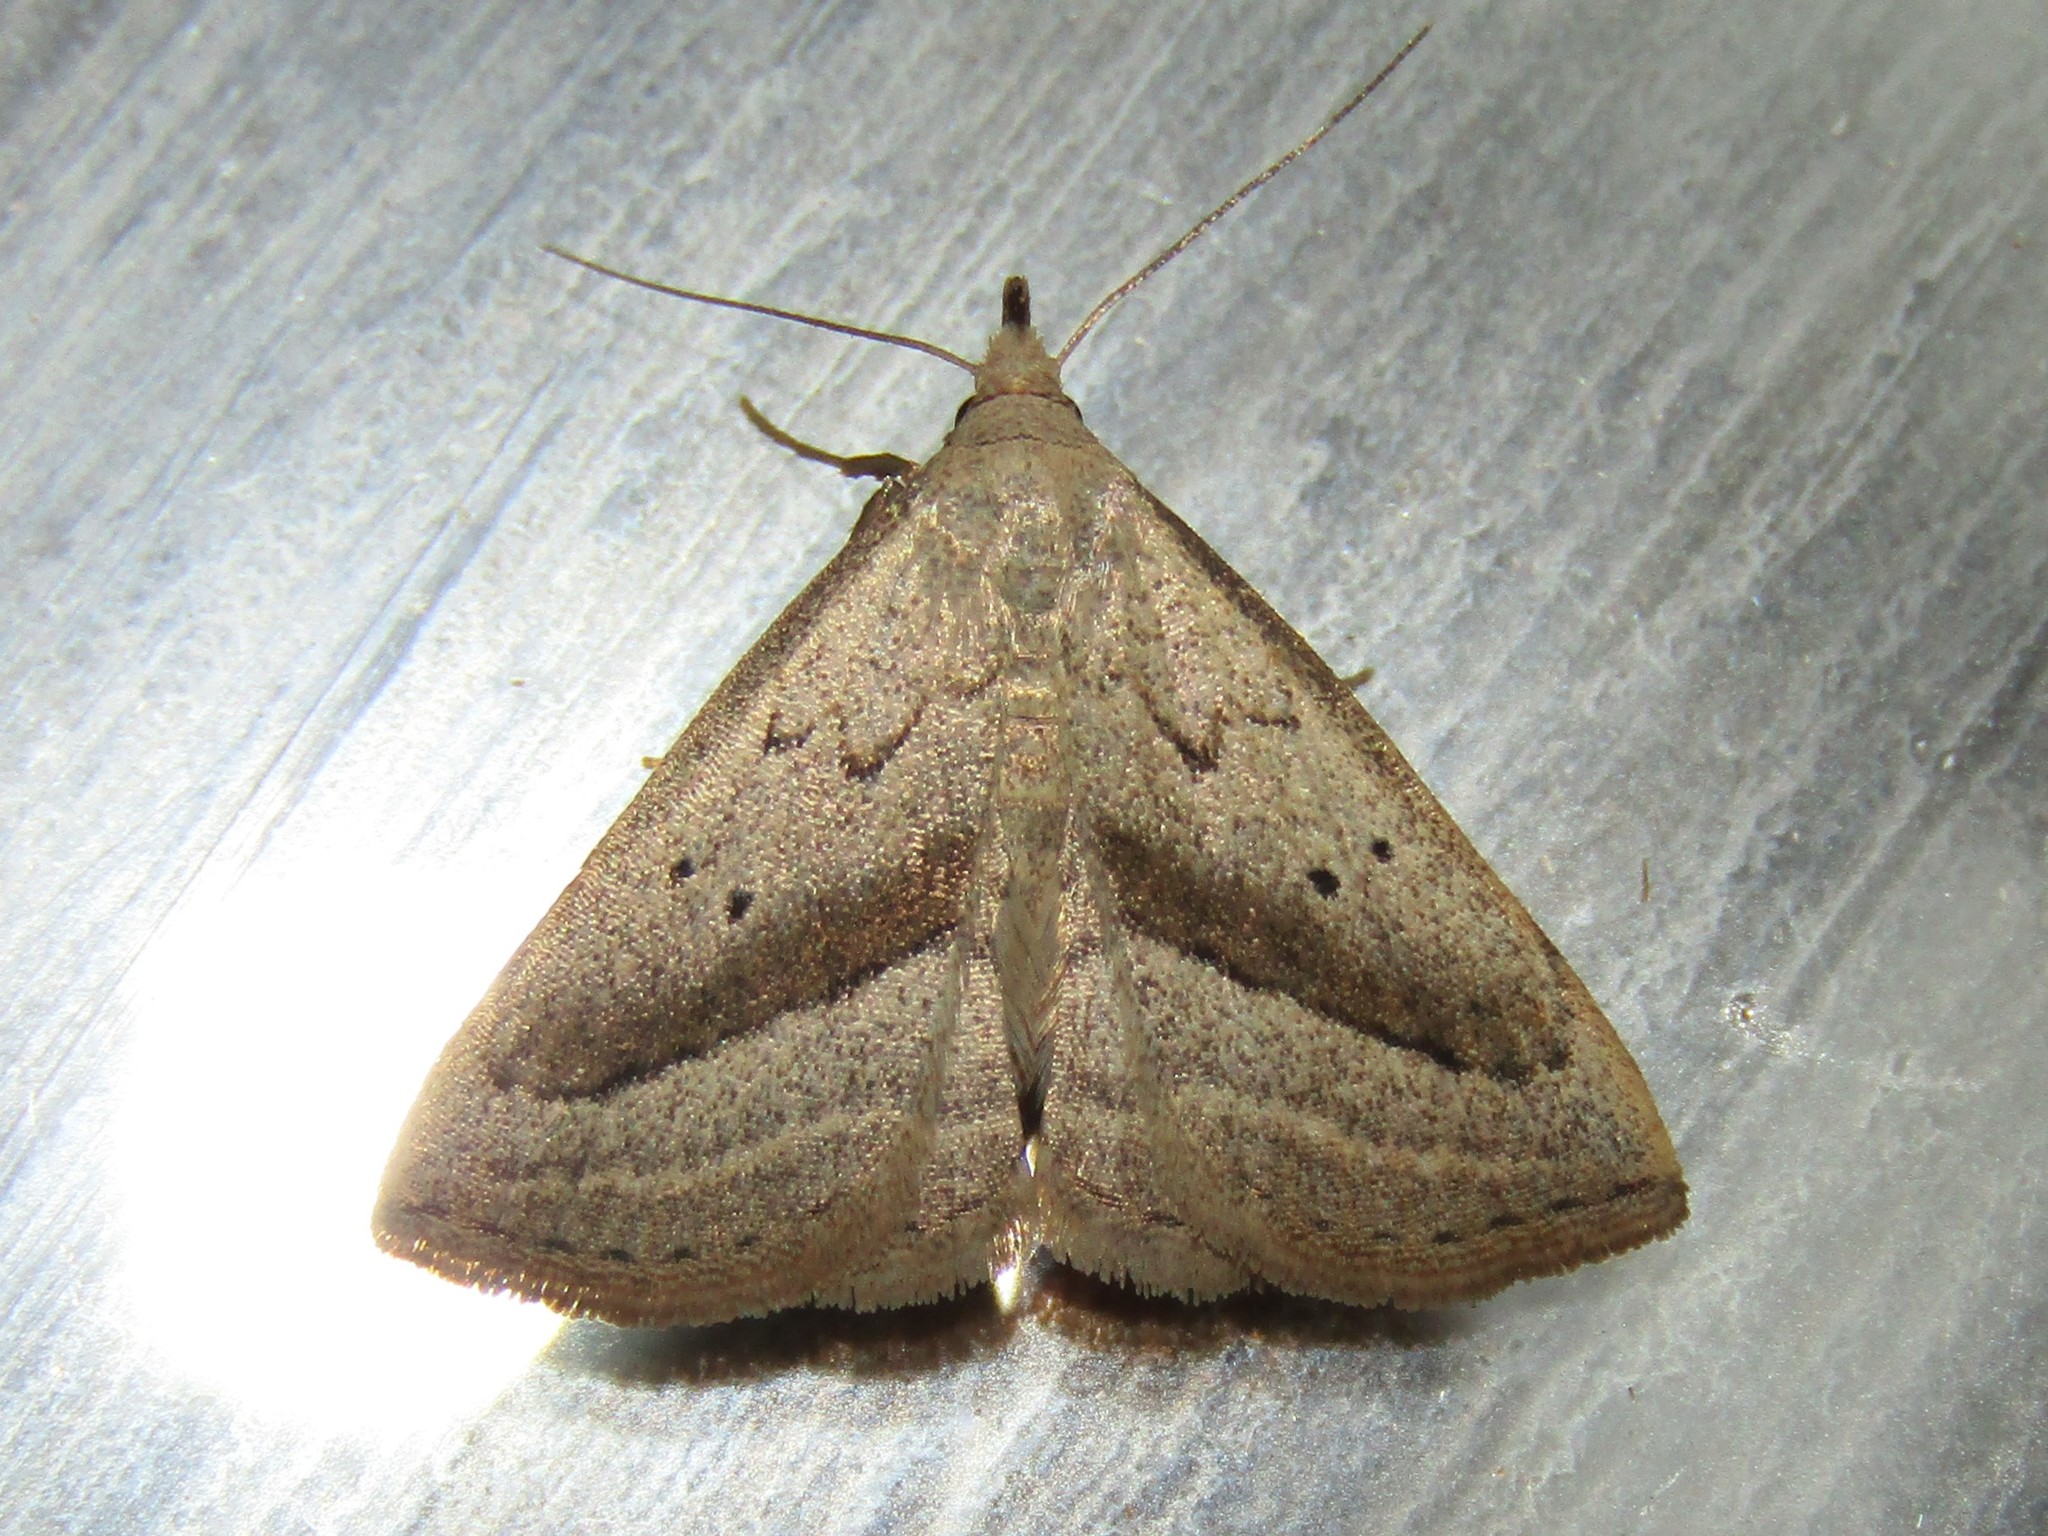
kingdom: Animalia
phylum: Arthropoda
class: Insecta
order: Lepidoptera
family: Erebidae
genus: Macrochilo
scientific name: Macrochilo hypocritalis
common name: Twin-dotted owlet
